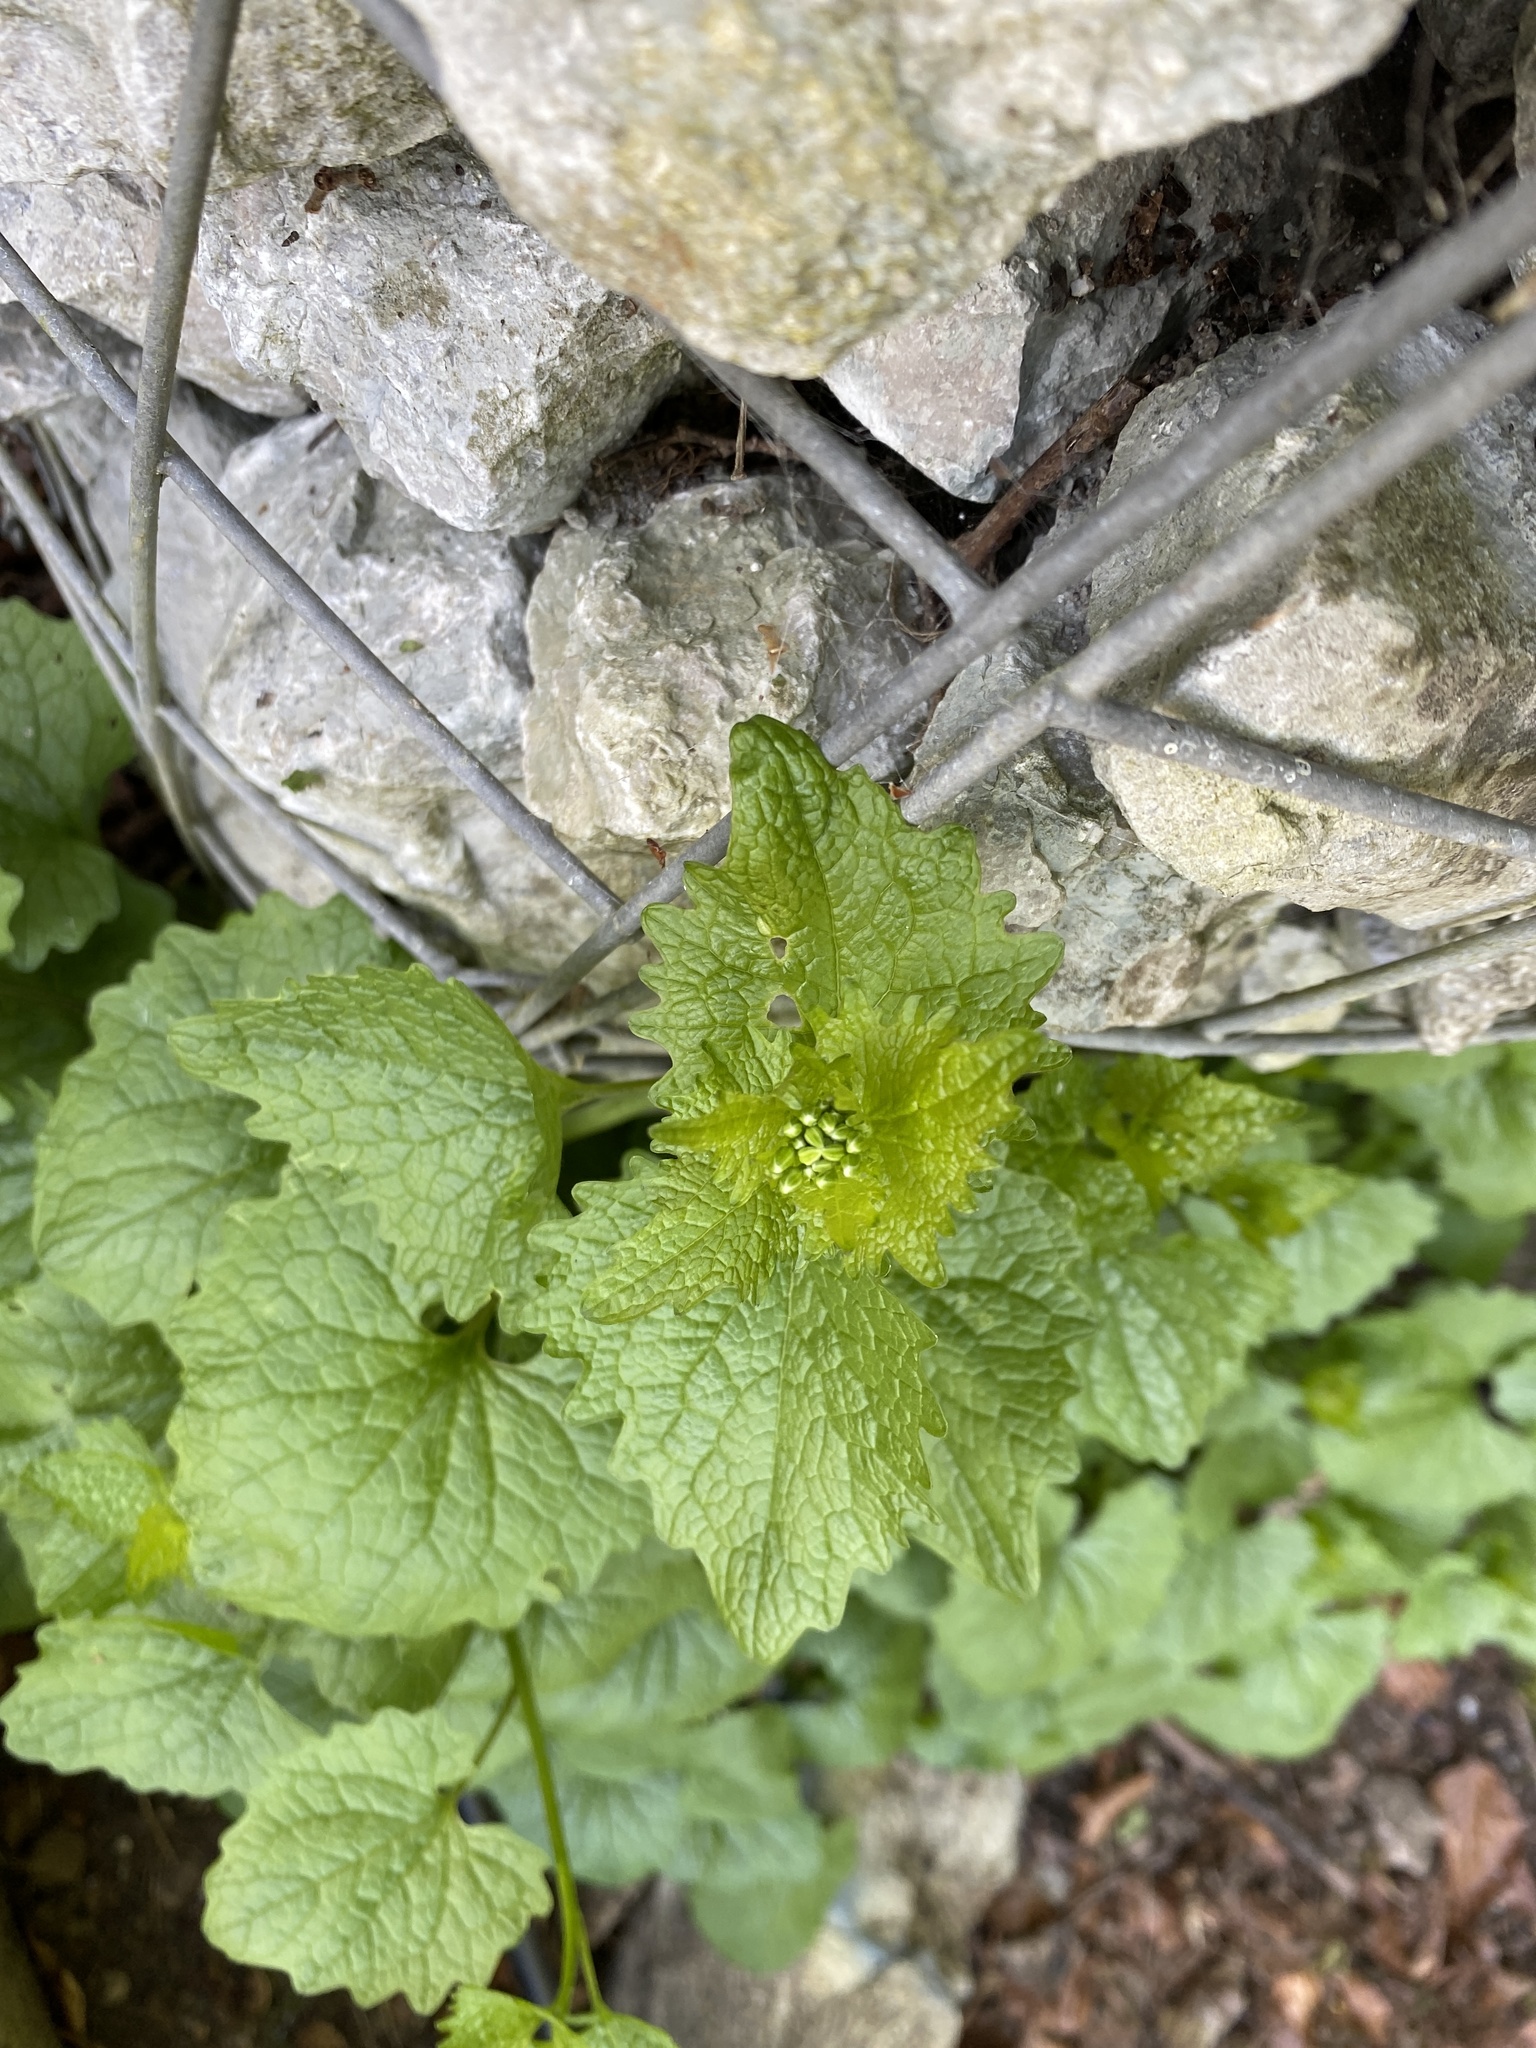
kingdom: Plantae
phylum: Tracheophyta
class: Magnoliopsida
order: Brassicales
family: Brassicaceae
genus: Alliaria
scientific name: Alliaria petiolata
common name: Garlic mustard
